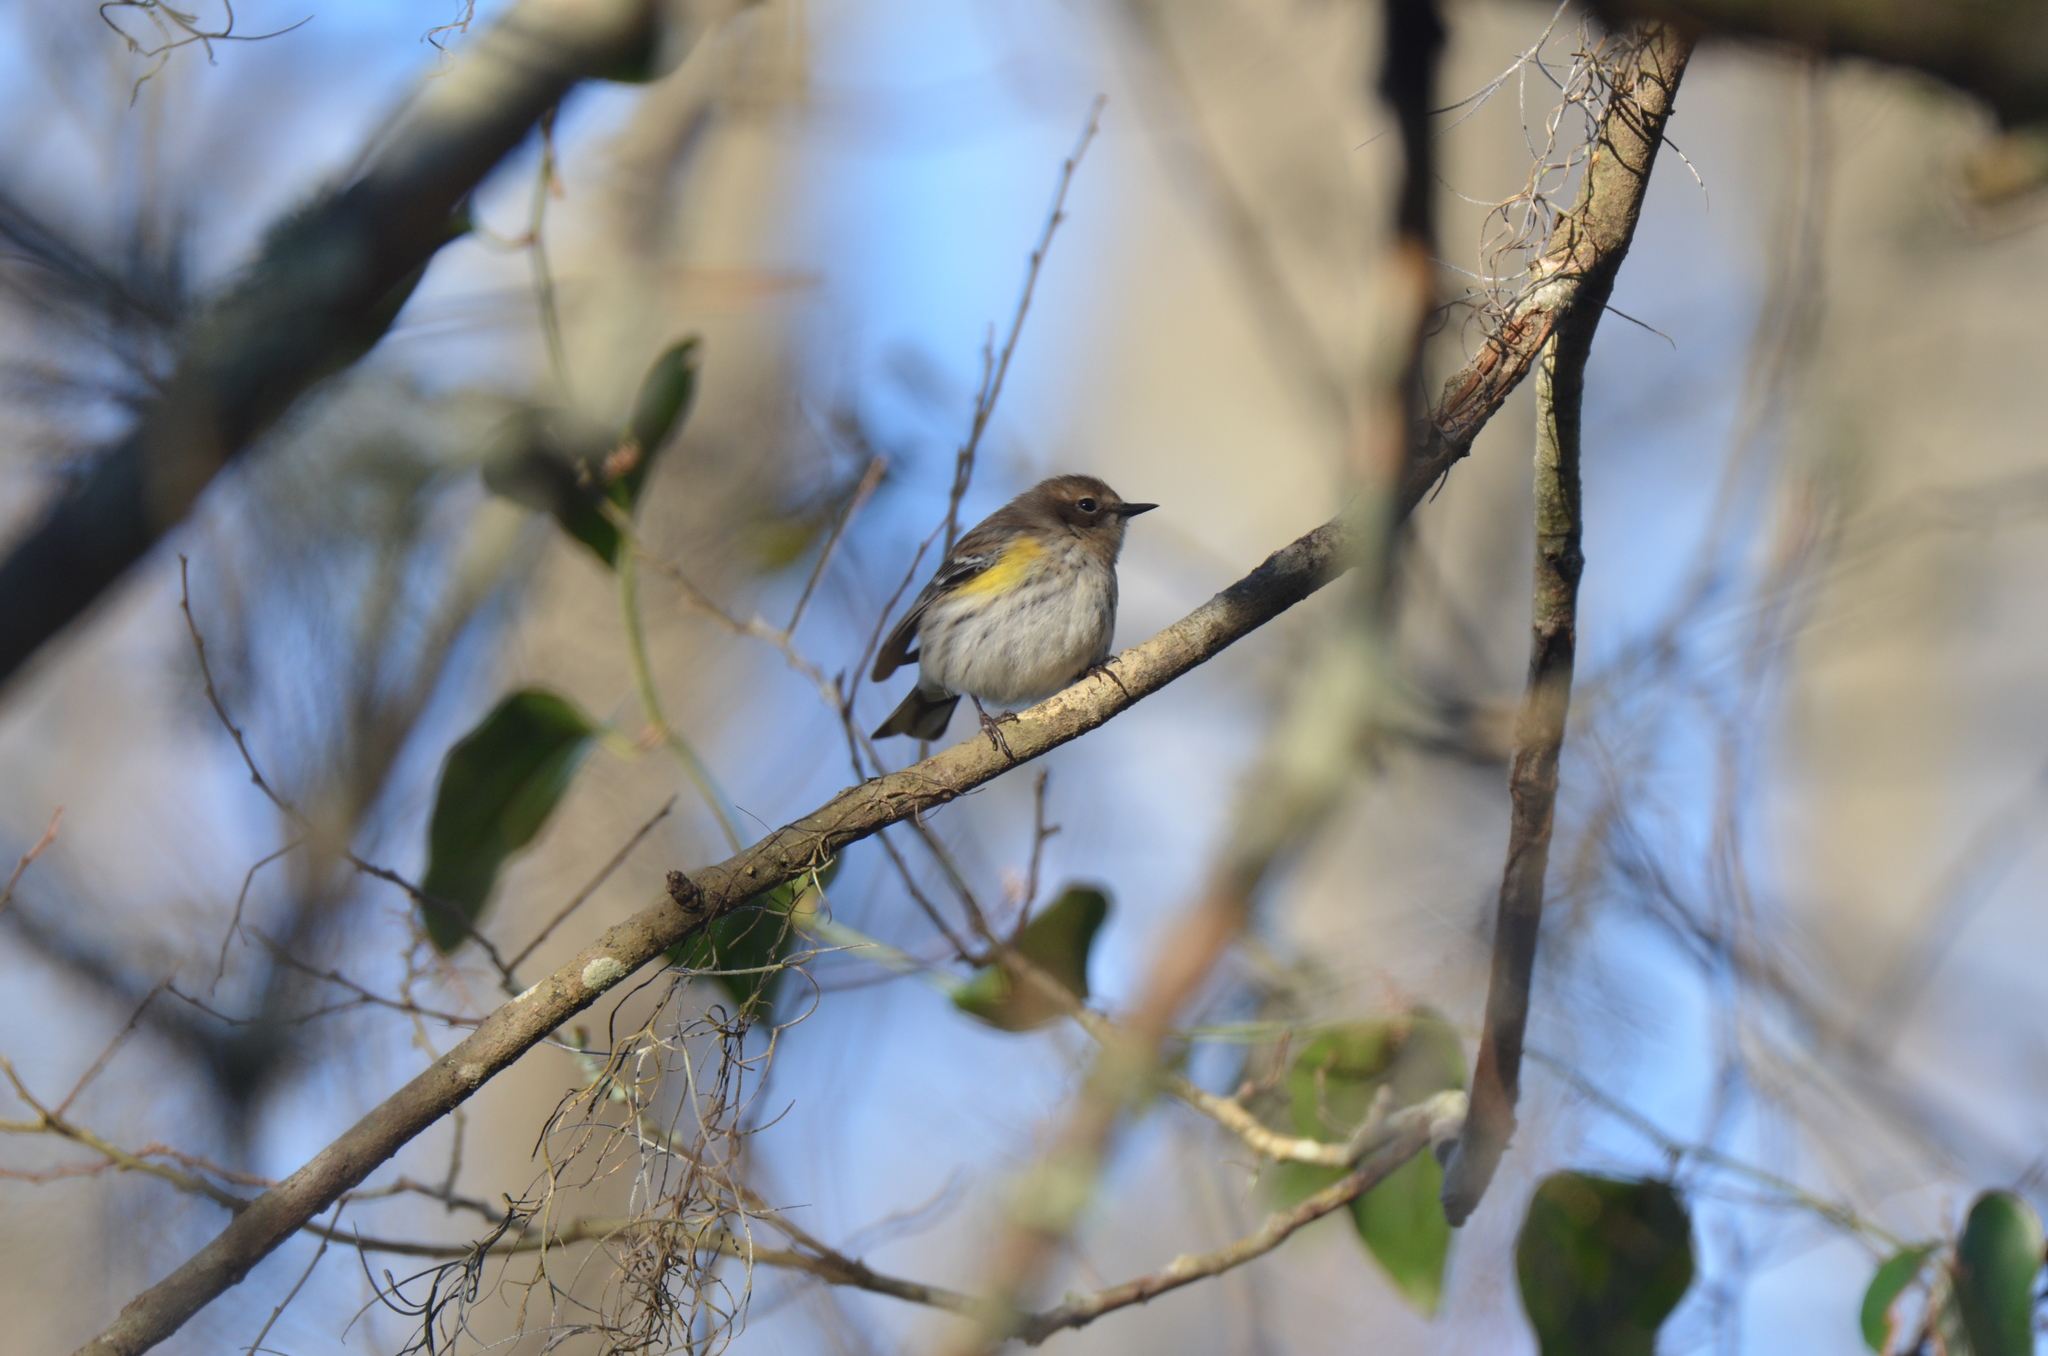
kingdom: Animalia
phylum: Chordata
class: Aves
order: Passeriformes
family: Parulidae
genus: Setophaga
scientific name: Setophaga coronata
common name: Myrtle warbler
